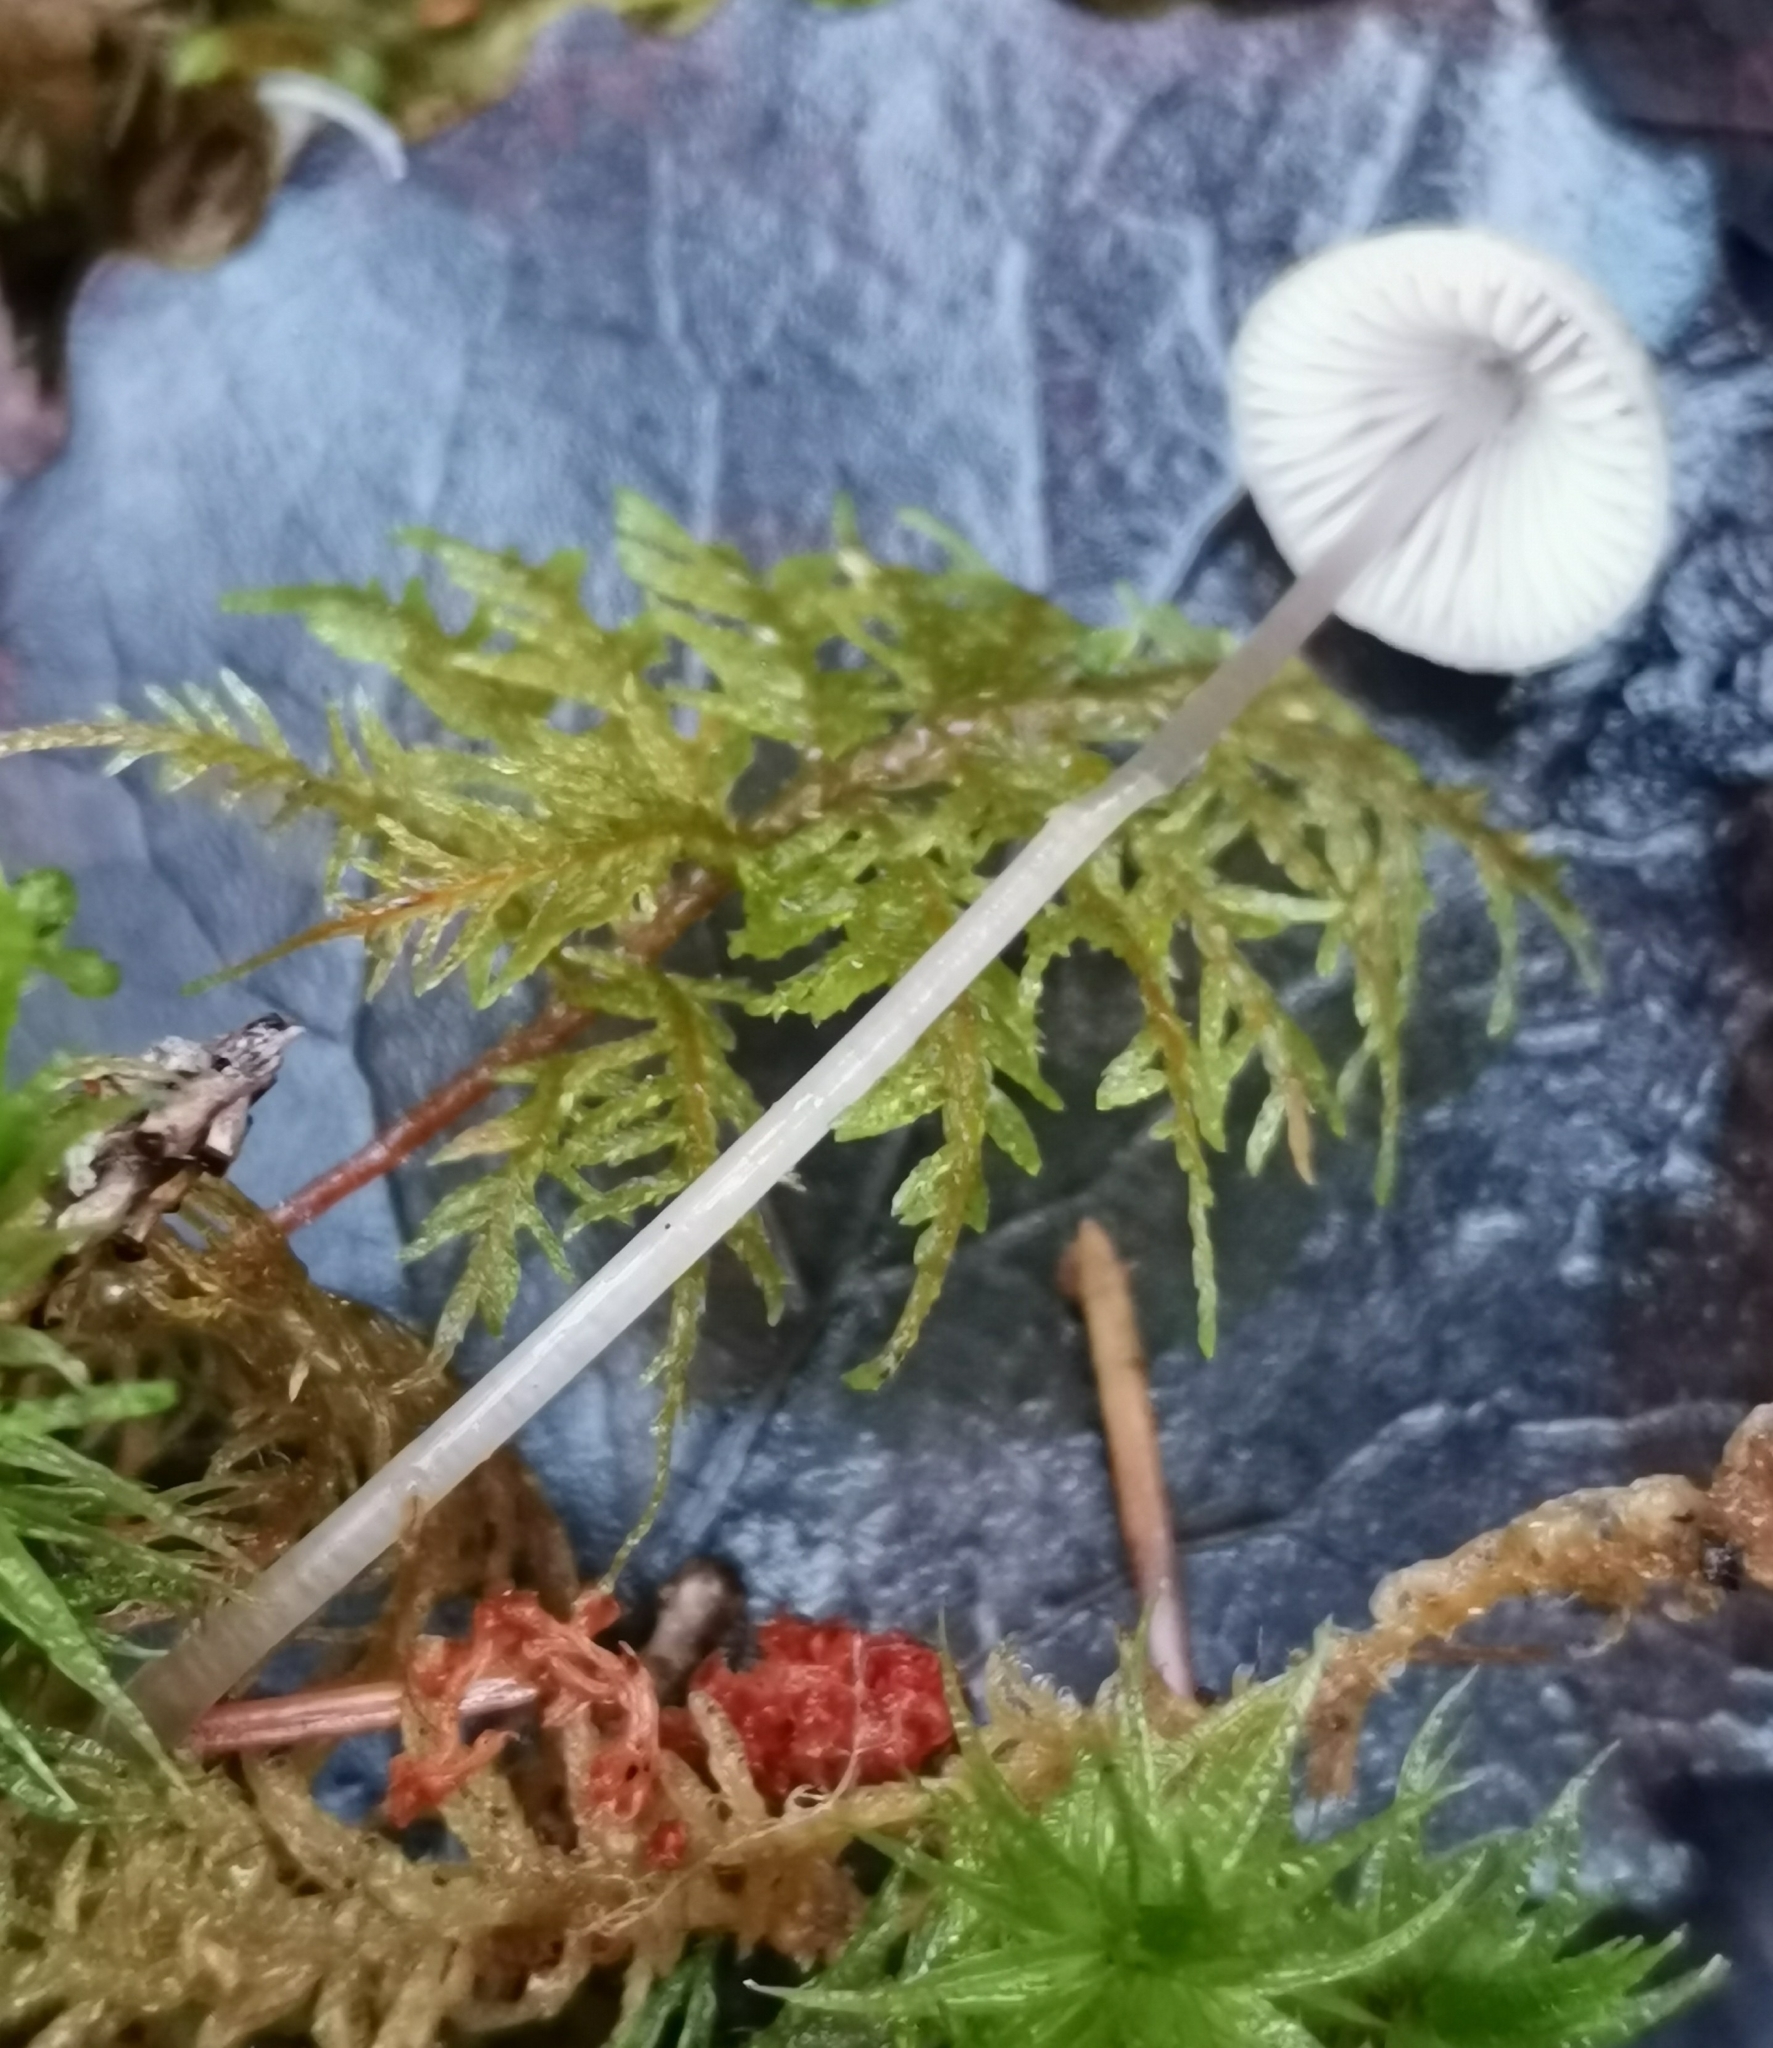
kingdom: Fungi
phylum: Basidiomycota
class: Agaricomycetes
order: Agaricales
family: Mycenaceae
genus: Mycena
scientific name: Mycena galericulata
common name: Bonnet mycena
